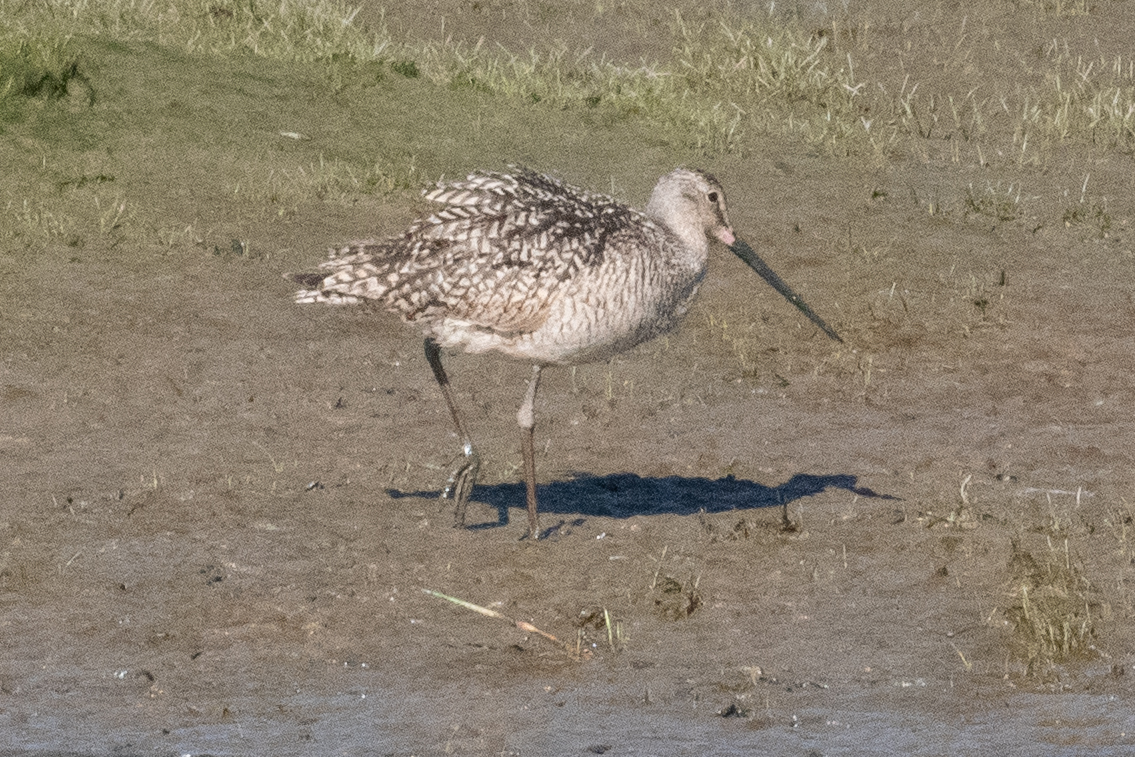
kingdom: Animalia
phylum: Chordata
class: Aves
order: Charadriiformes
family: Scolopacidae
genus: Limosa
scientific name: Limosa fedoa
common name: Marbled godwit
